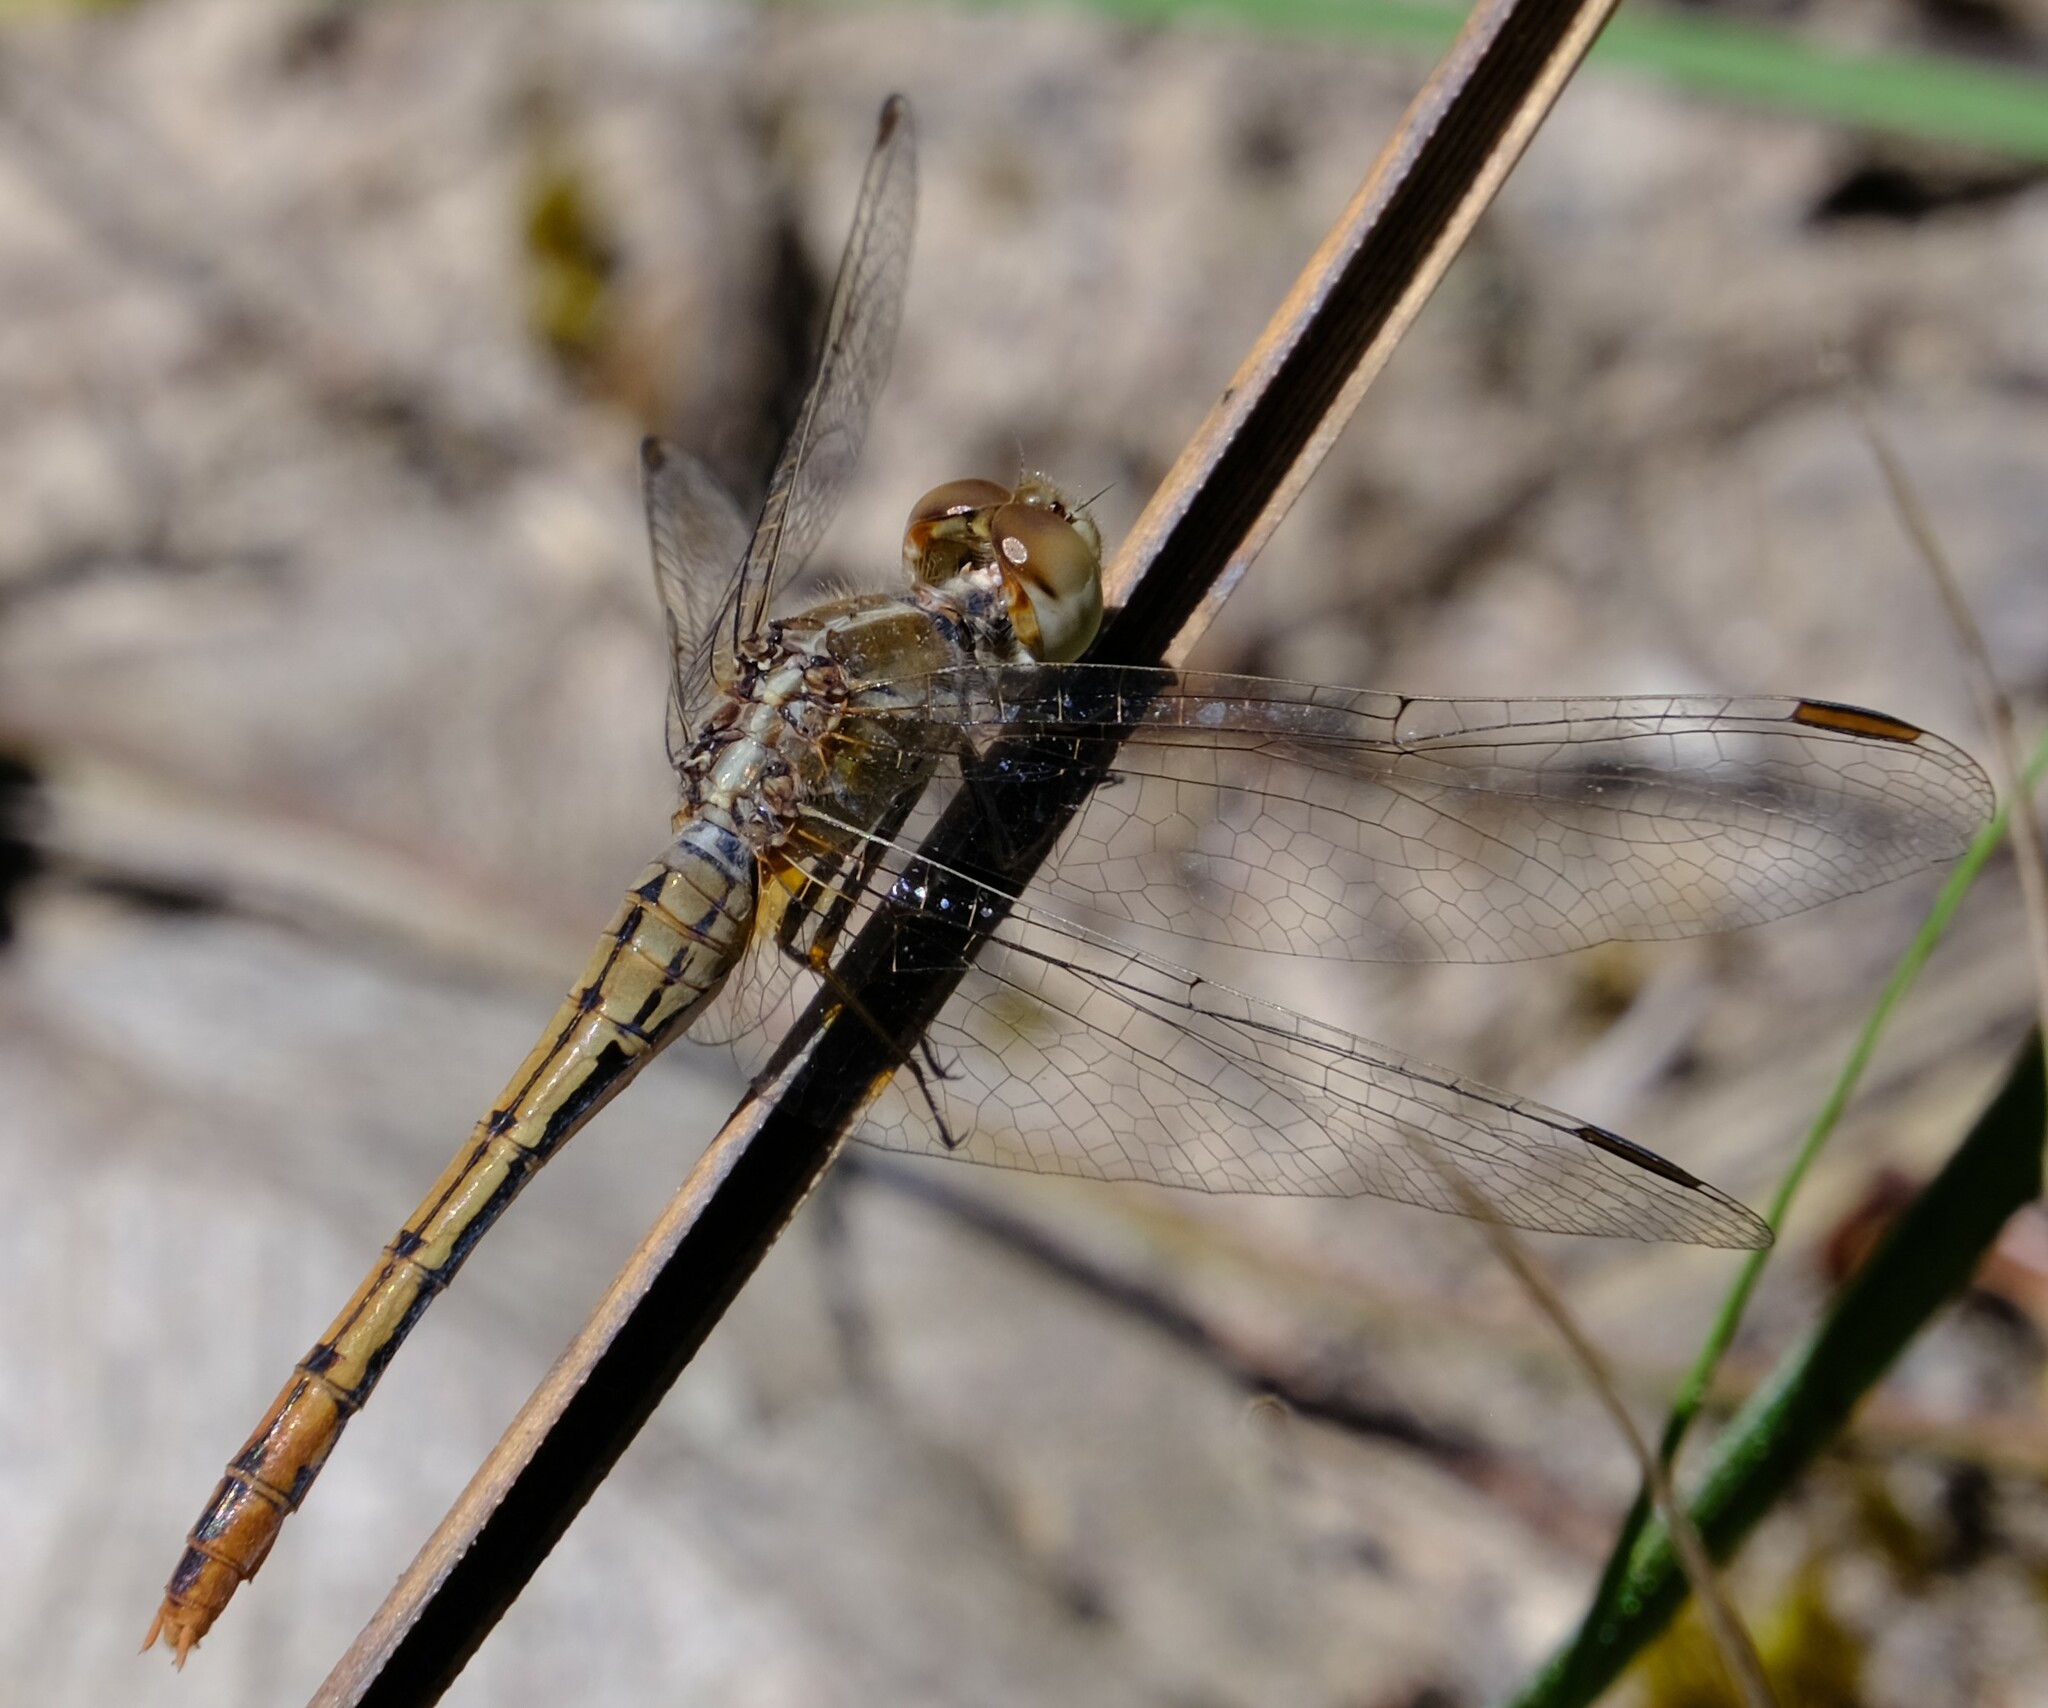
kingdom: Animalia
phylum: Arthropoda
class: Insecta
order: Odonata
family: Libellulidae
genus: Diplacodes
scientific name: Diplacodes bipunctata
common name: Red percher dragonfly
